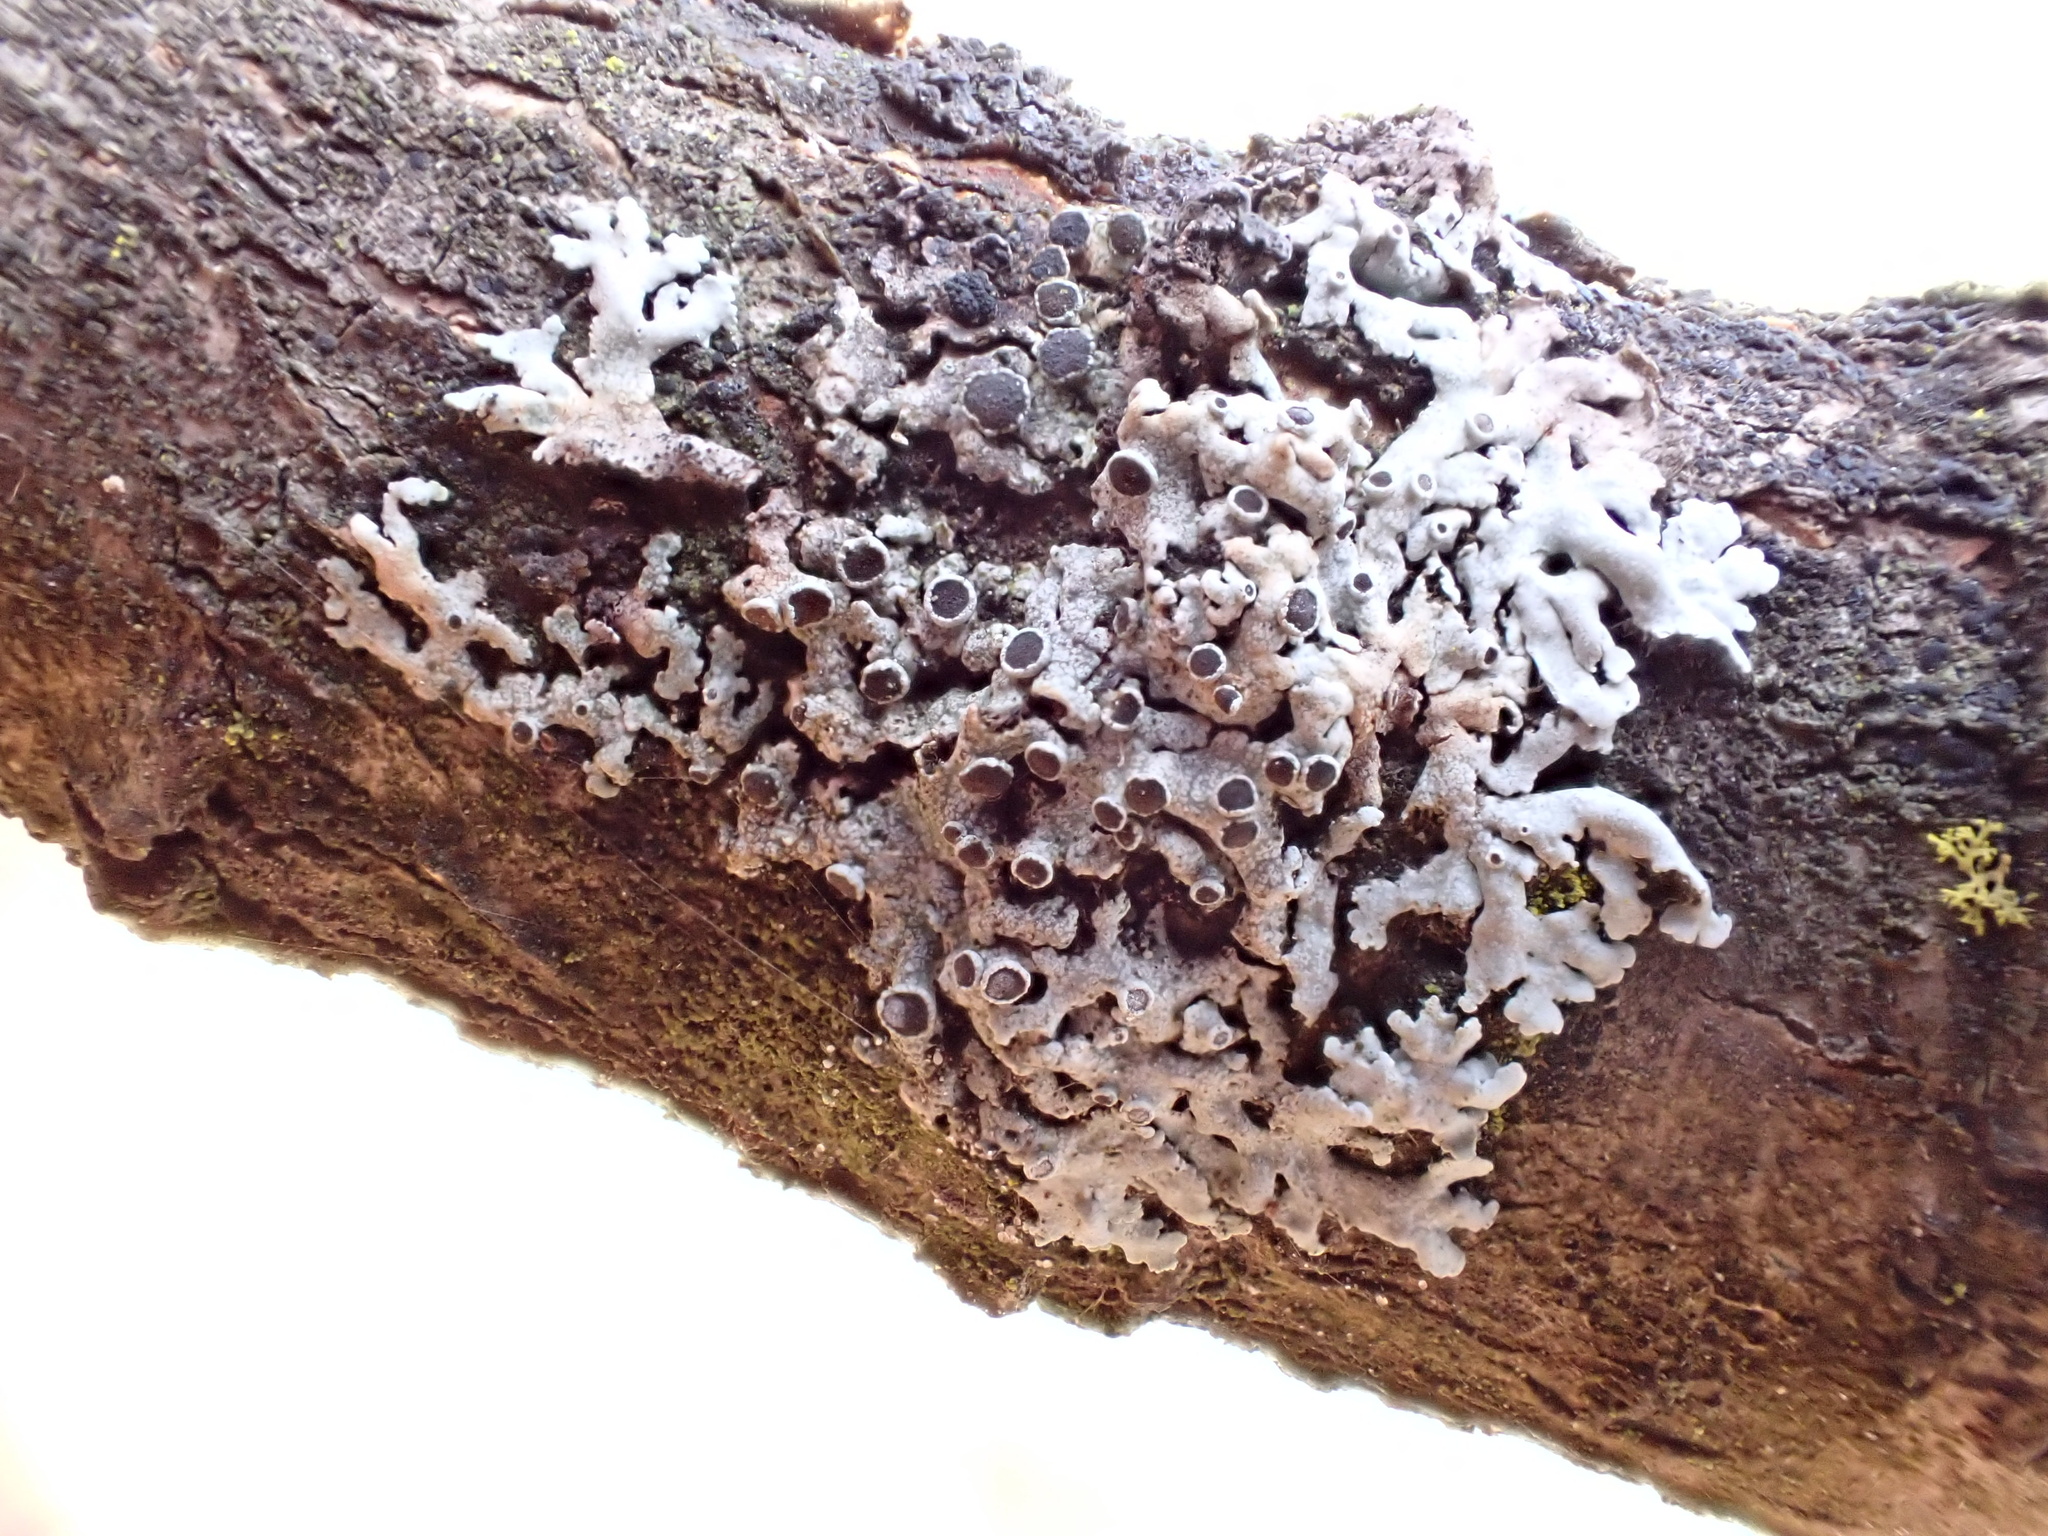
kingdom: Fungi
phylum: Ascomycota
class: Lecanoromycetes
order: Caliciales
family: Physciaceae
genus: Physcia
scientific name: Physcia aipolia
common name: Hoary rosette lichen
